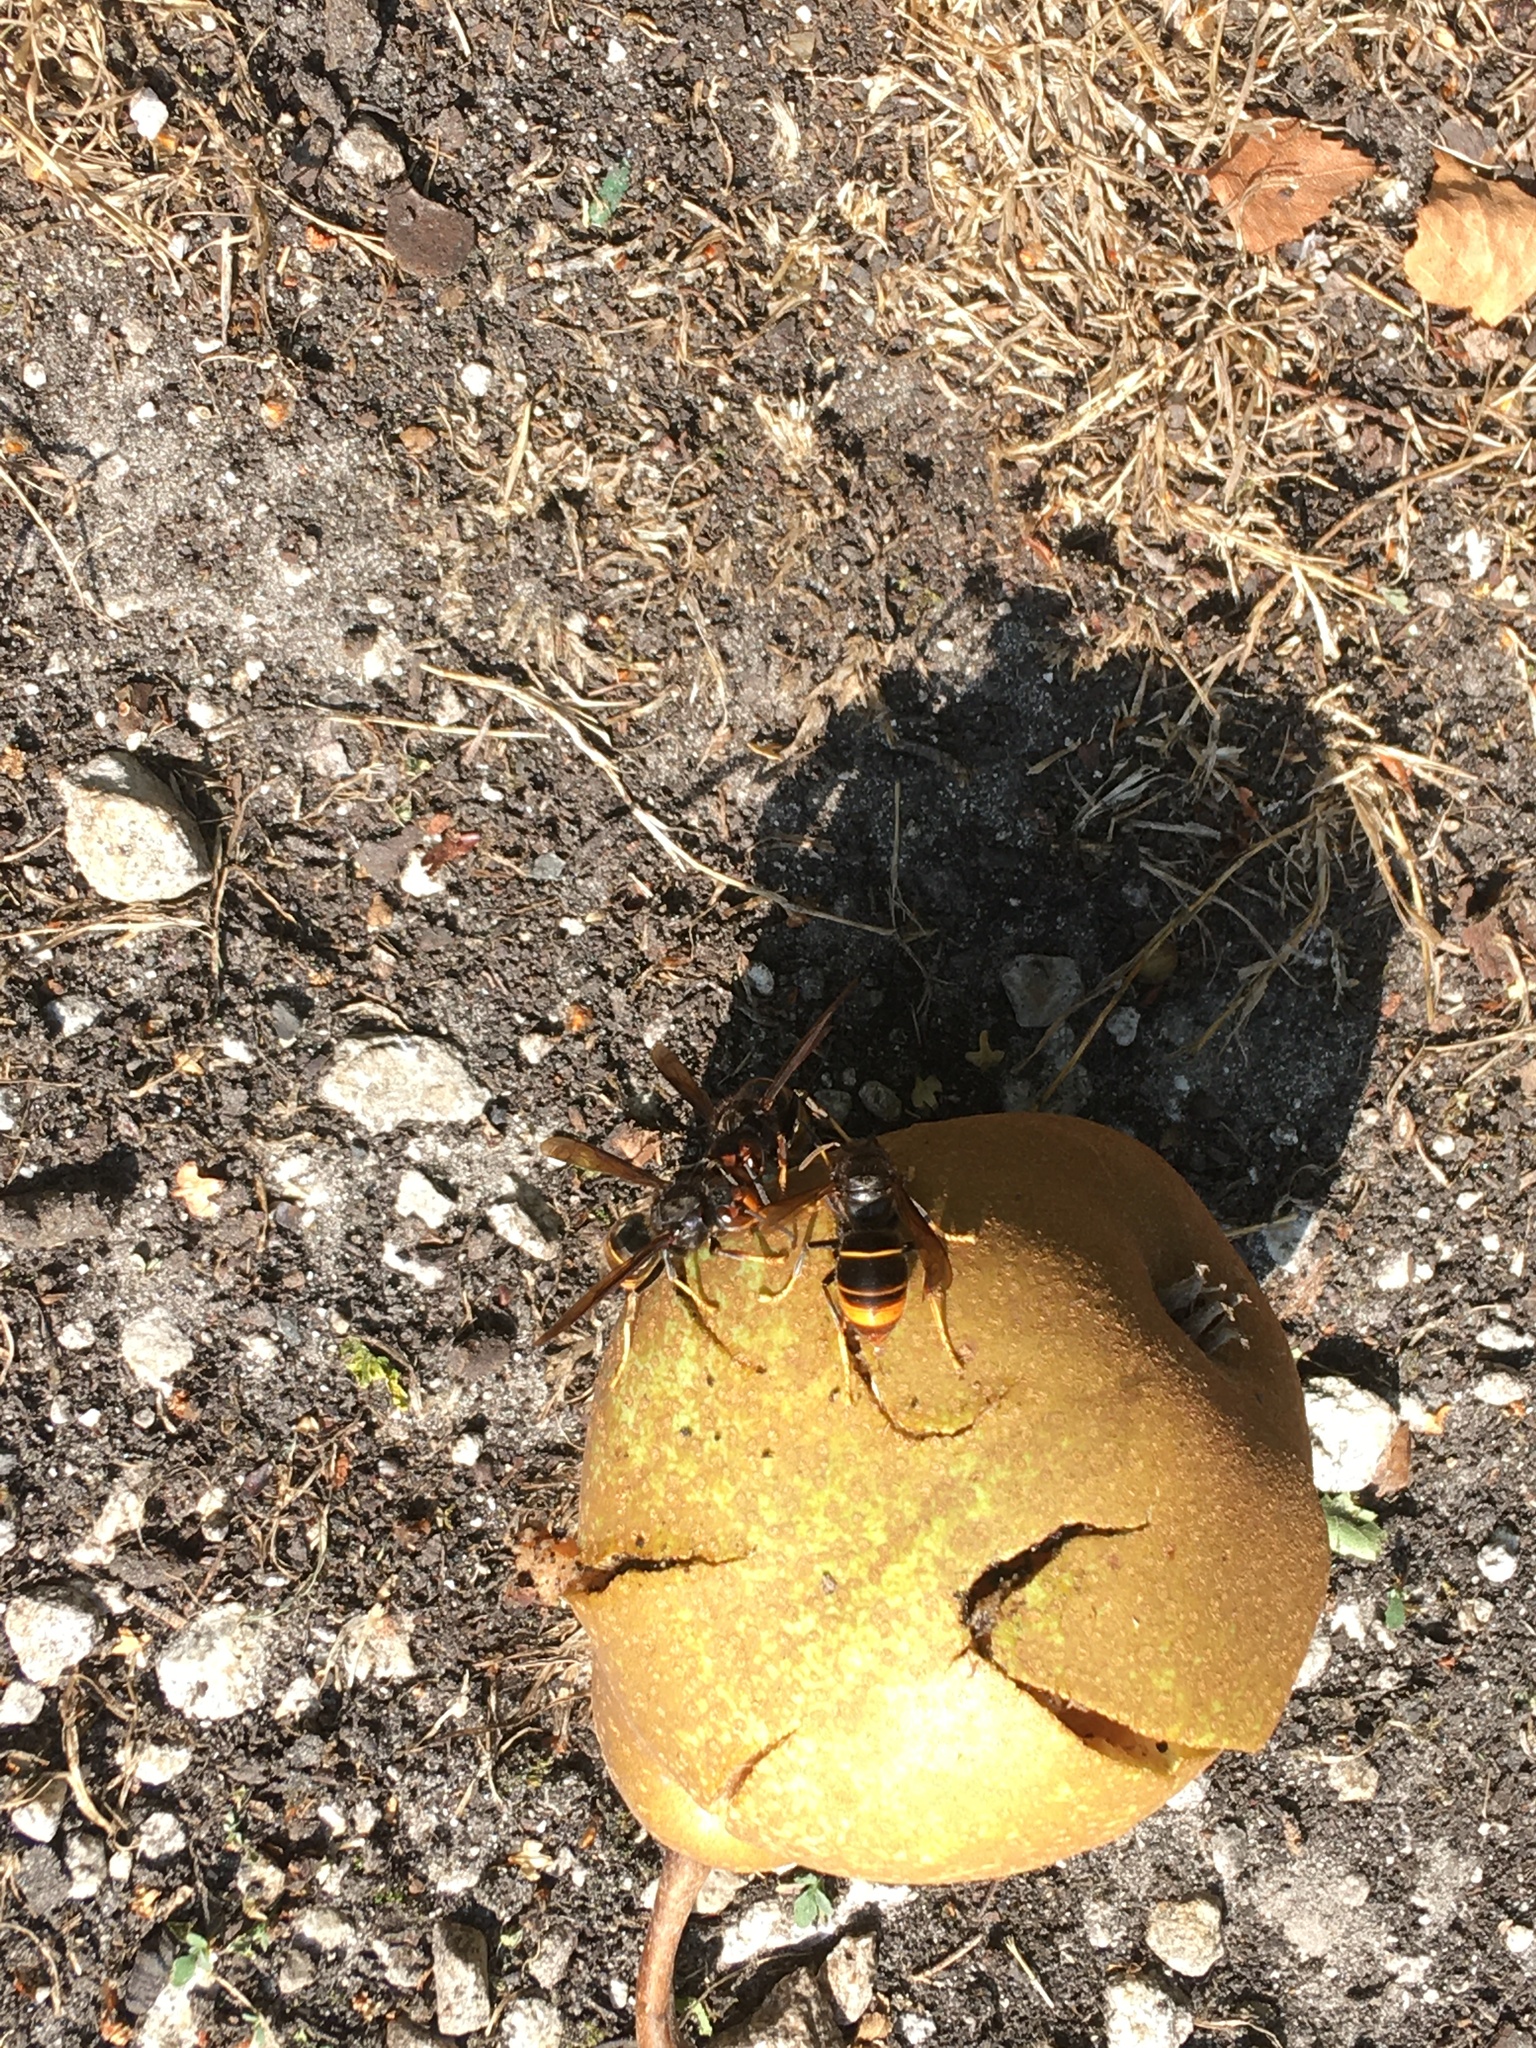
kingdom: Animalia
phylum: Arthropoda
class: Insecta
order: Hymenoptera
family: Vespidae
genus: Vespa
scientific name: Vespa velutina
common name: Asian hornet
